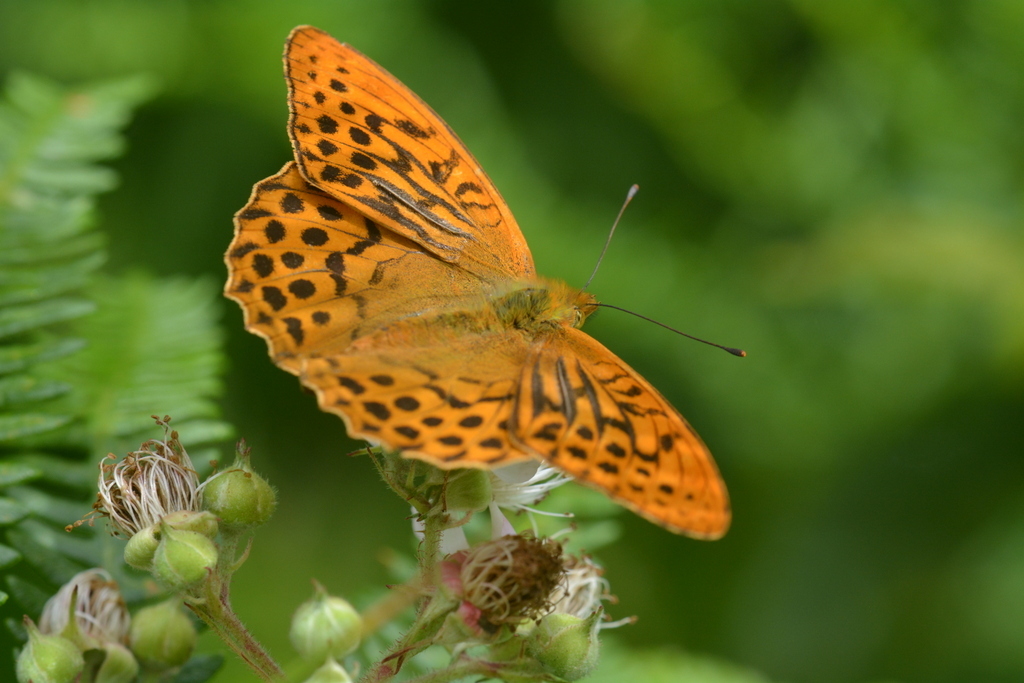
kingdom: Animalia
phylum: Arthropoda
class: Insecta
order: Lepidoptera
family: Nymphalidae
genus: Argynnis
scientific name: Argynnis paphia
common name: Silver-washed fritillary
